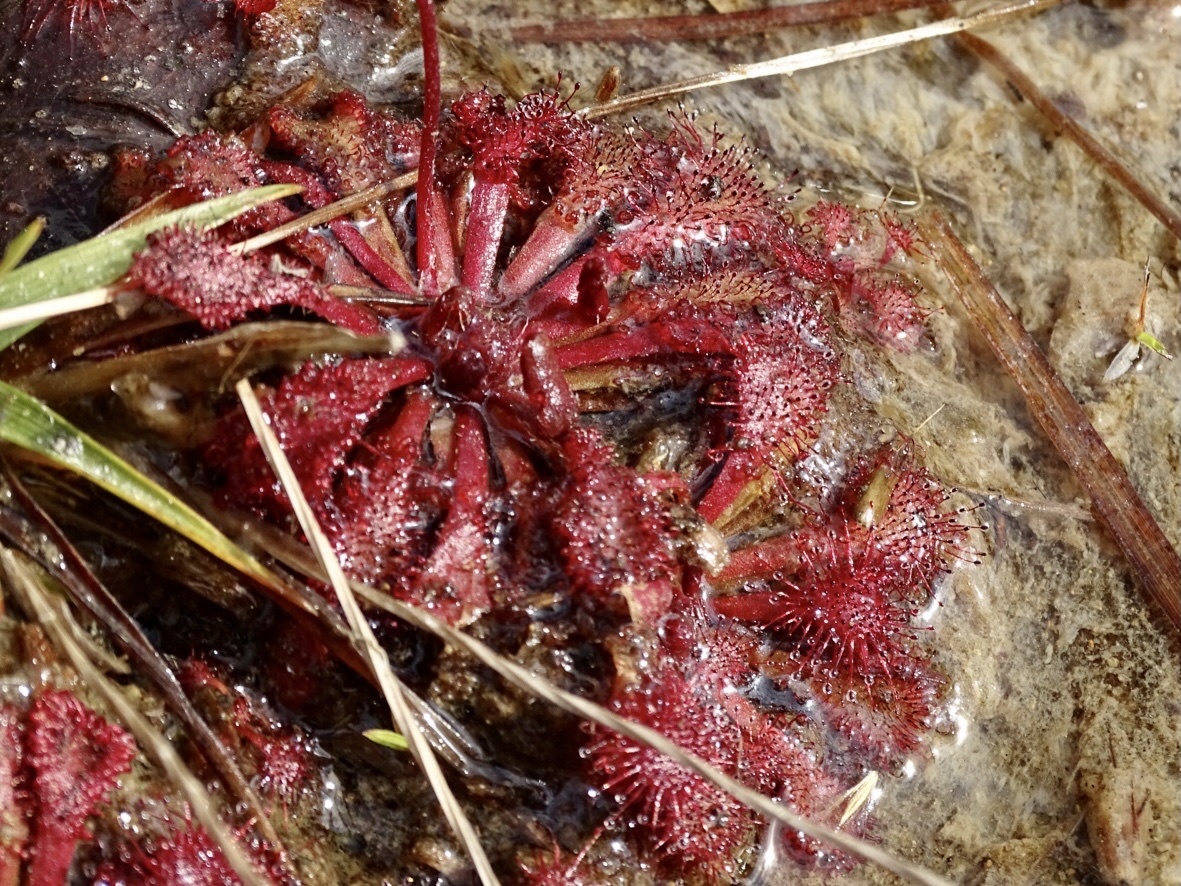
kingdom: Plantae
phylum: Tracheophyta
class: Magnoliopsida
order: Caryophyllales
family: Droseraceae
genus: Drosera
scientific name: Drosera spatulata
